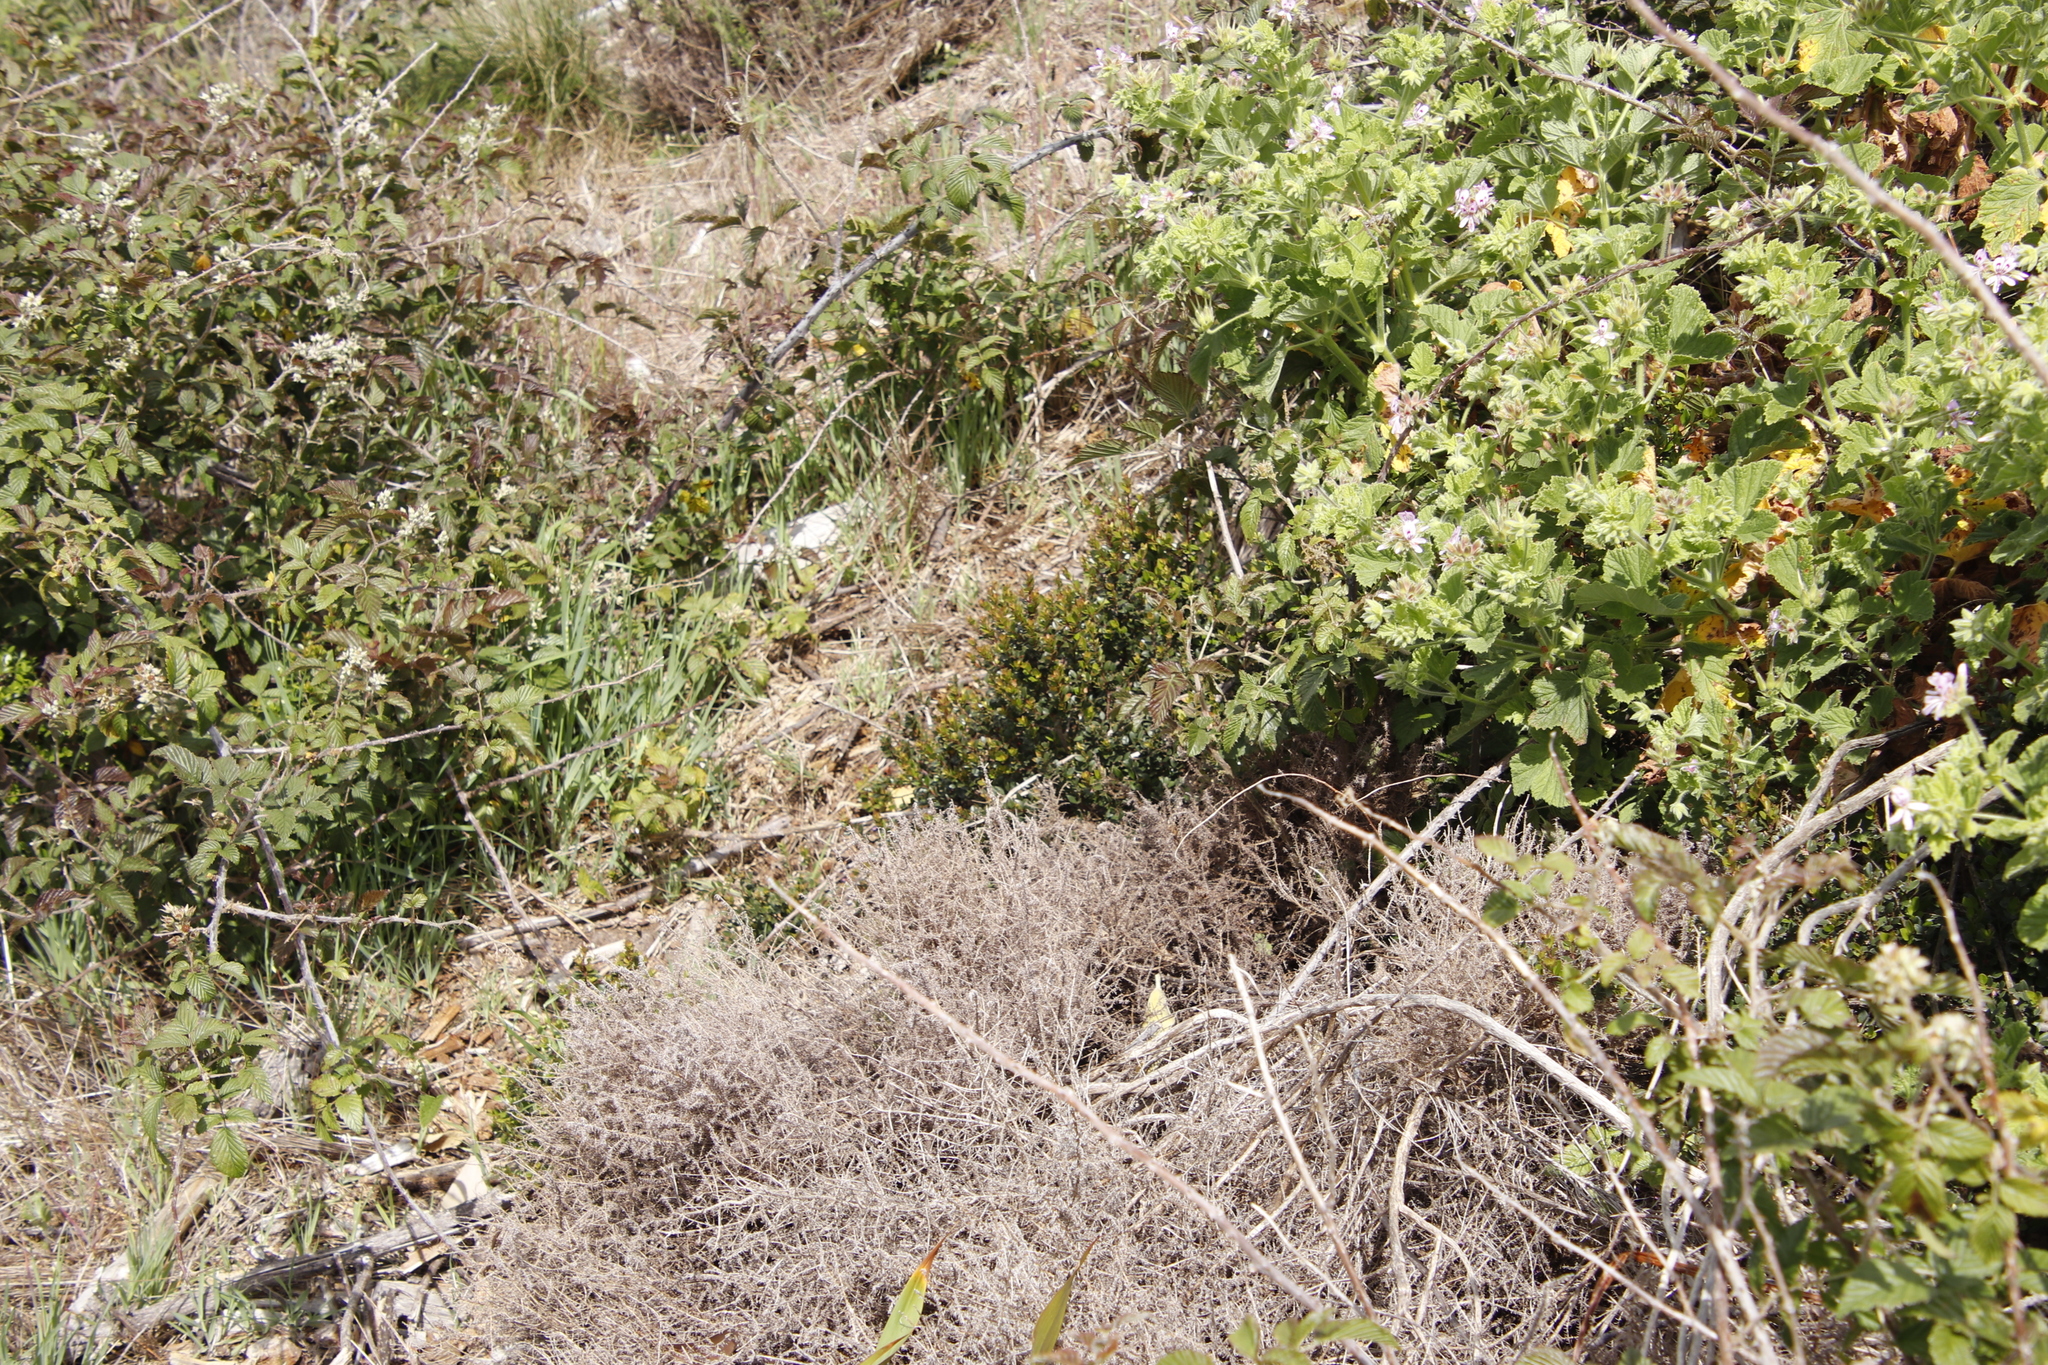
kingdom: Plantae
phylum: Tracheophyta
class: Magnoliopsida
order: Ericales
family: Primulaceae
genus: Myrsine
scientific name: Myrsine africana
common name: African-boxwood
